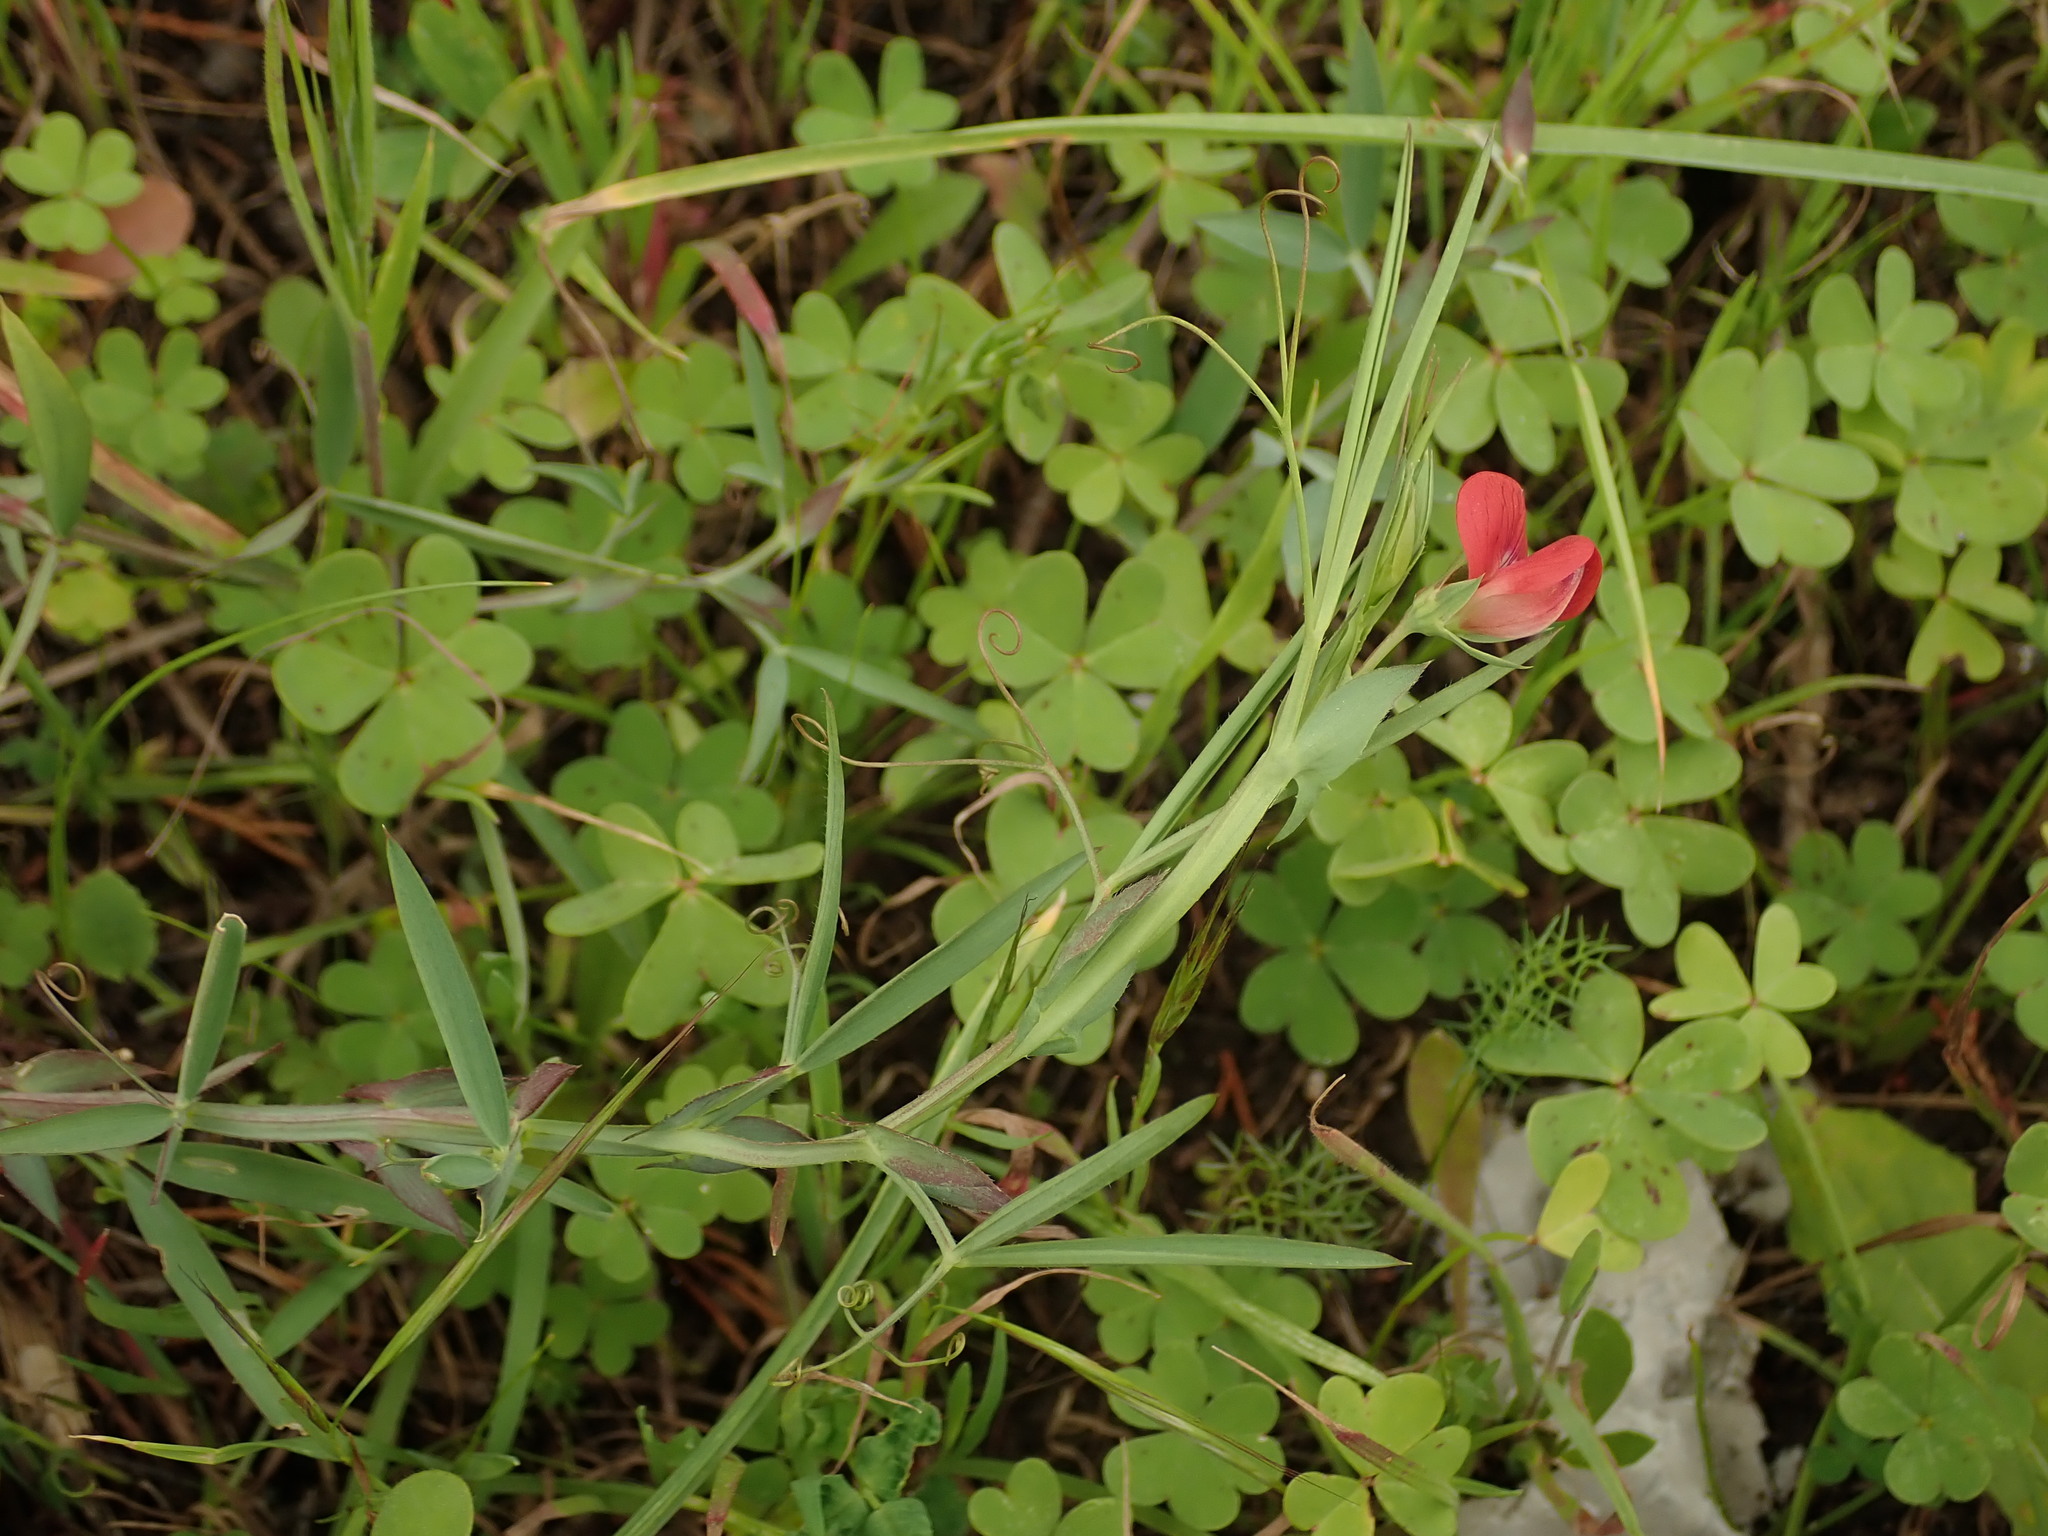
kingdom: Plantae
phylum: Tracheophyta
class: Magnoliopsida
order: Fabales
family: Fabaceae
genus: Lathyrus
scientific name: Lathyrus cicera
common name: Red vetchling
